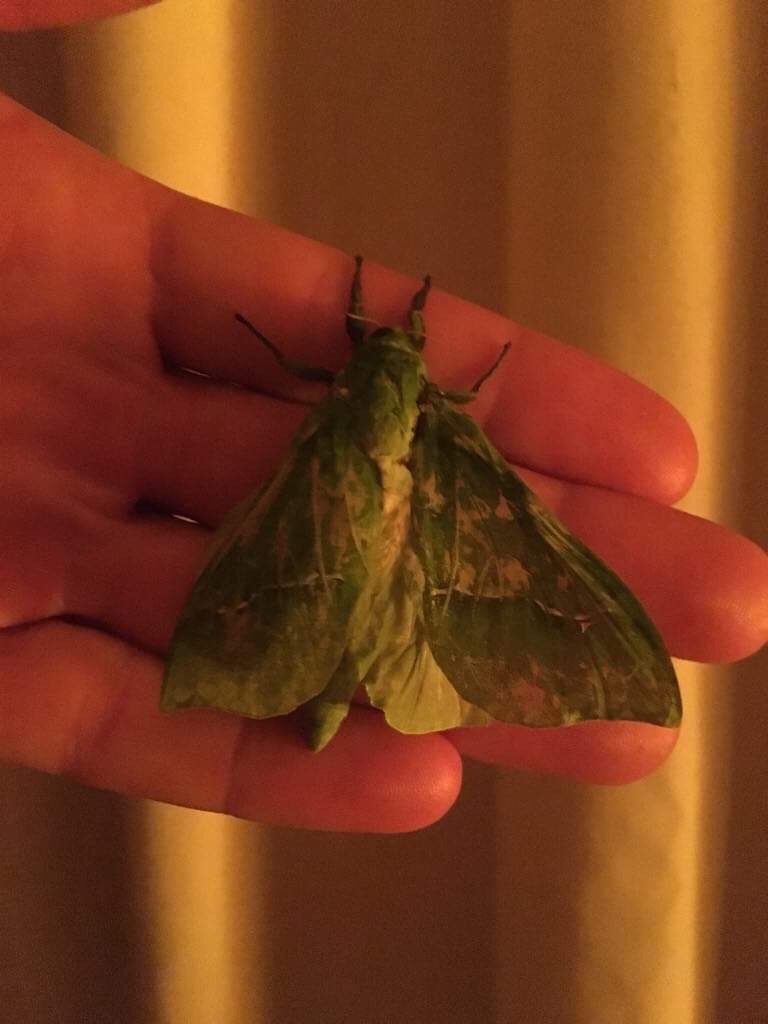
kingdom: Animalia
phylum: Arthropoda
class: Insecta
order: Lepidoptera
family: Hepialidae
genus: Aenetus
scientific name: Aenetus virescens
